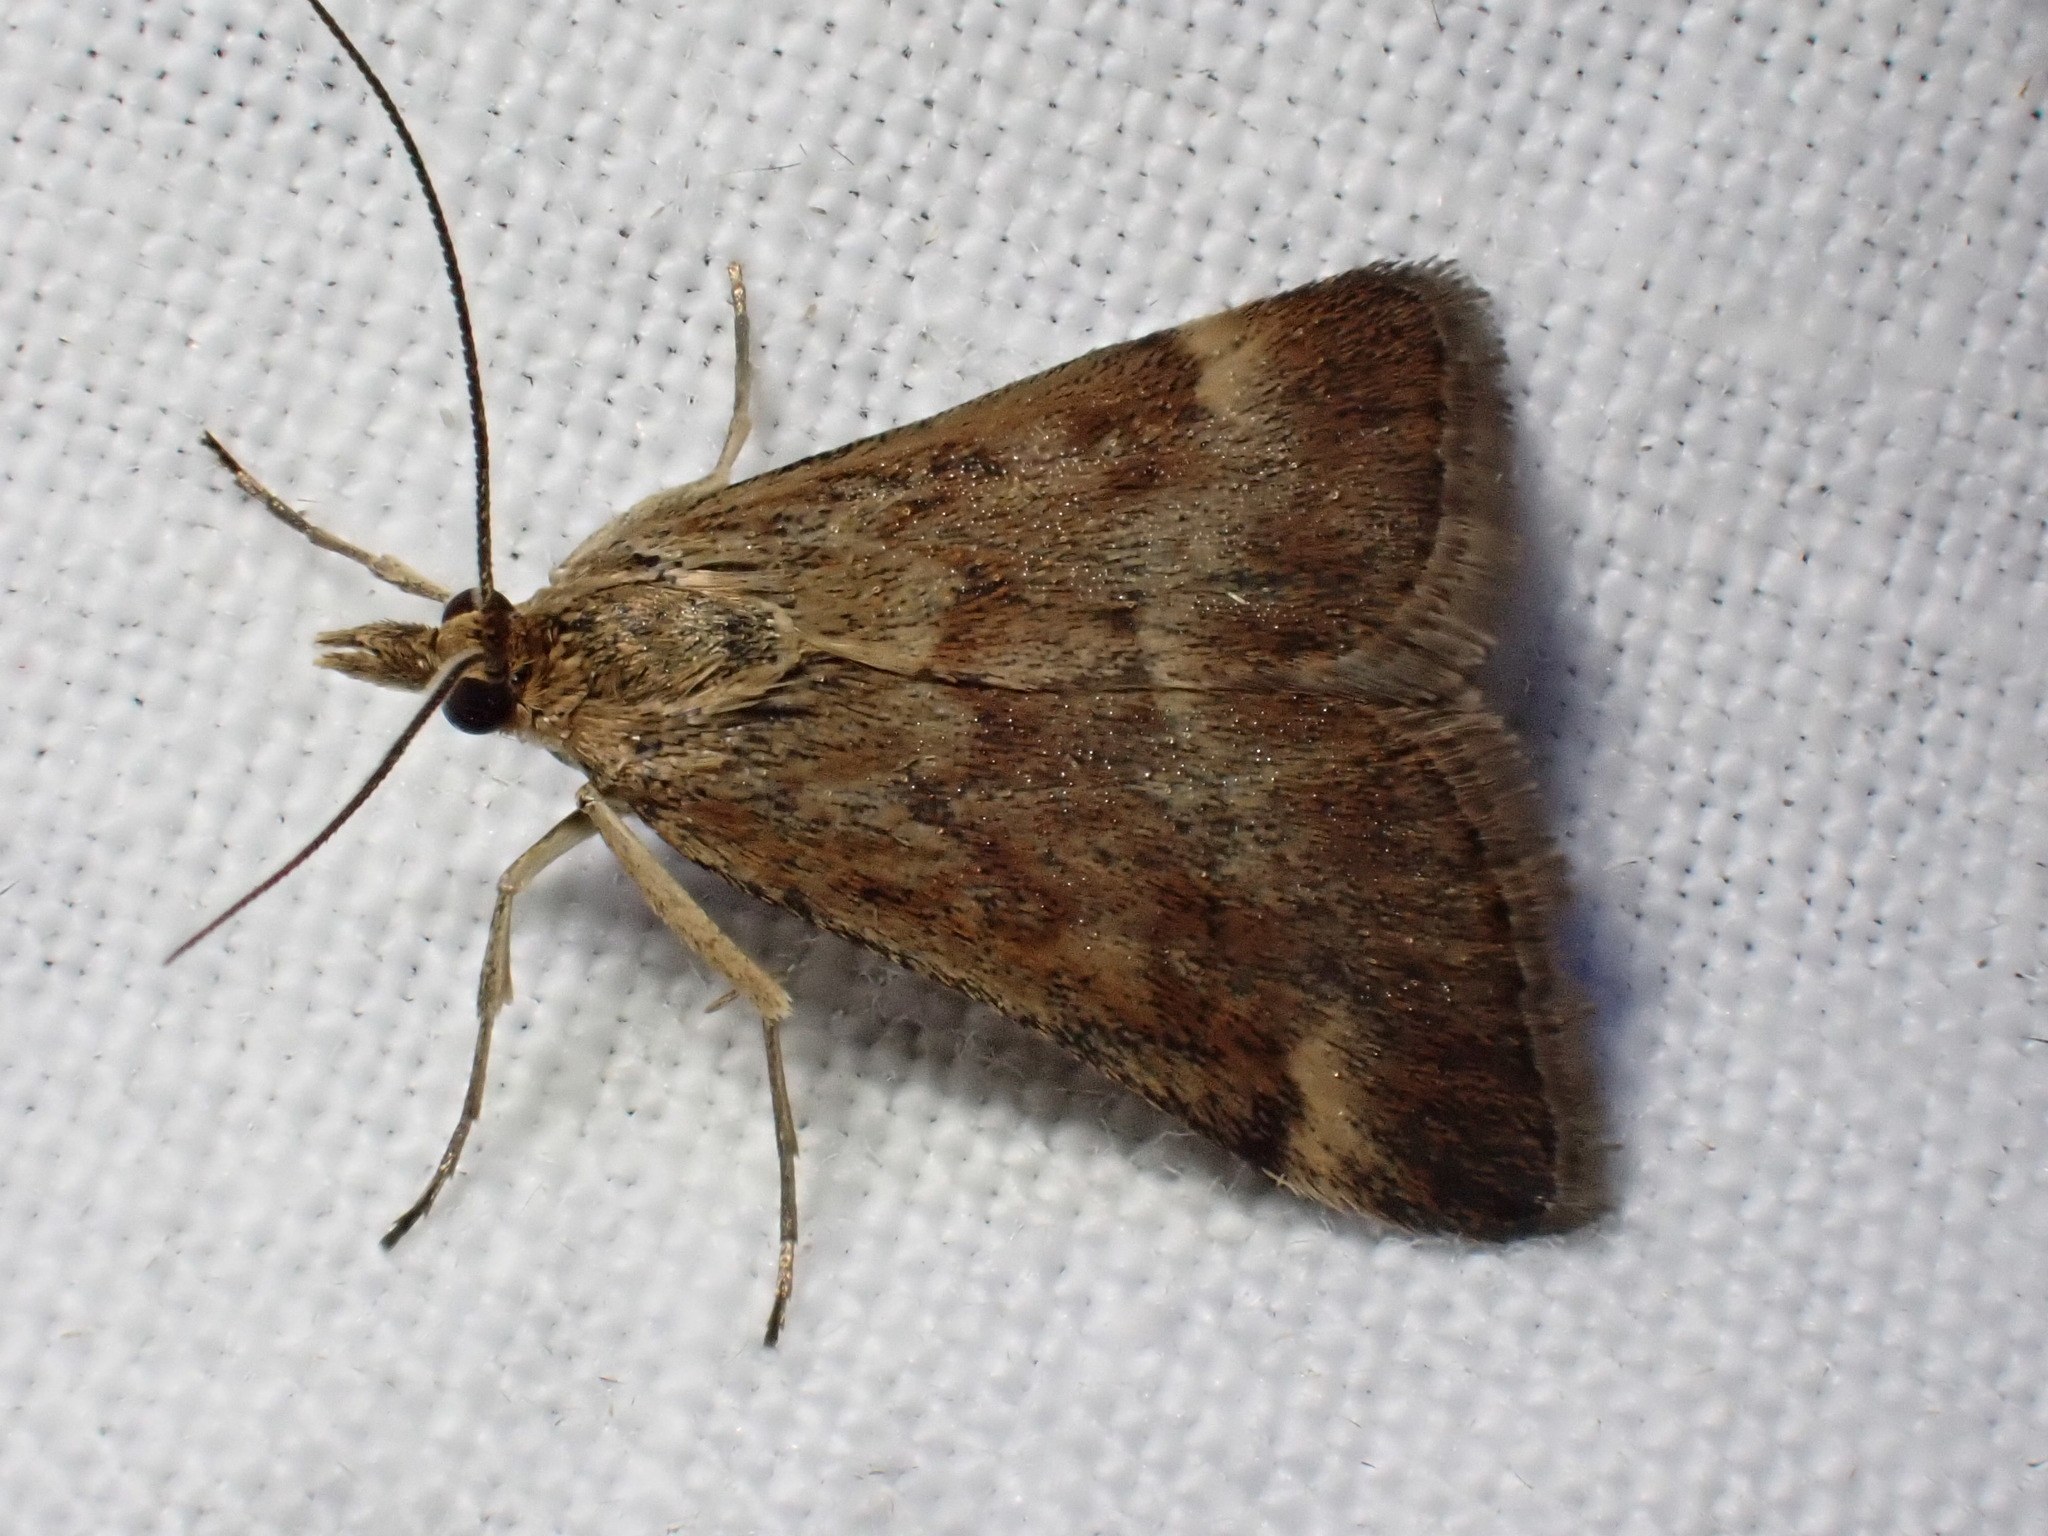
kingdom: Animalia
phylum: Arthropoda
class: Insecta
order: Lepidoptera
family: Crambidae
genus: Pyrausta
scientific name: Pyrausta despicata
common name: Straw-barred pearl
